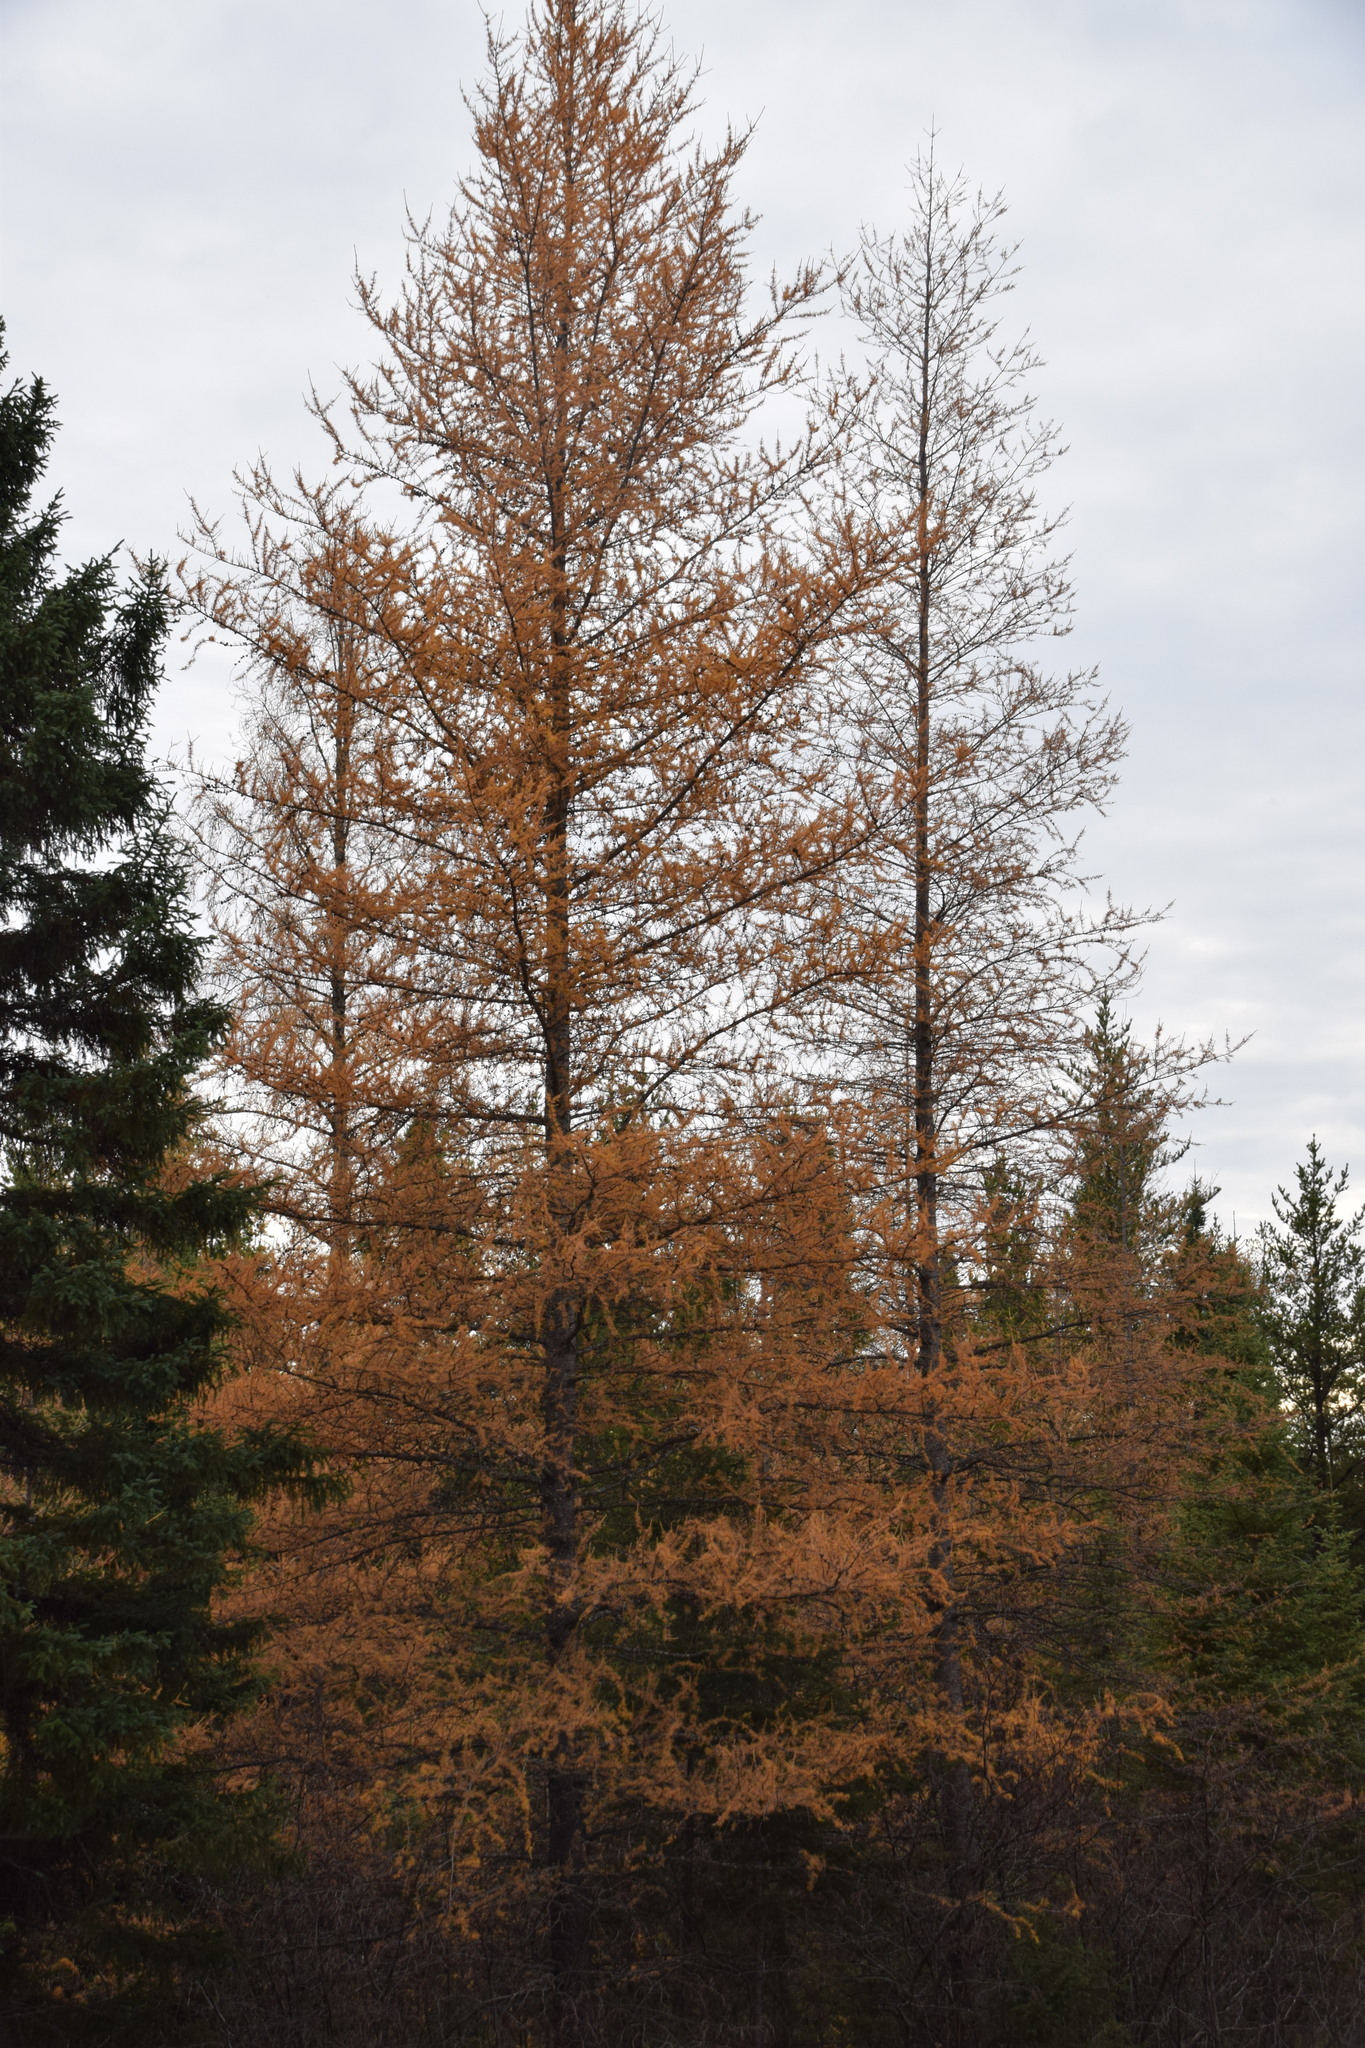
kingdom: Plantae
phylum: Tracheophyta
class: Pinopsida
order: Pinales
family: Pinaceae
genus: Larix
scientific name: Larix laricina
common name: American larch
